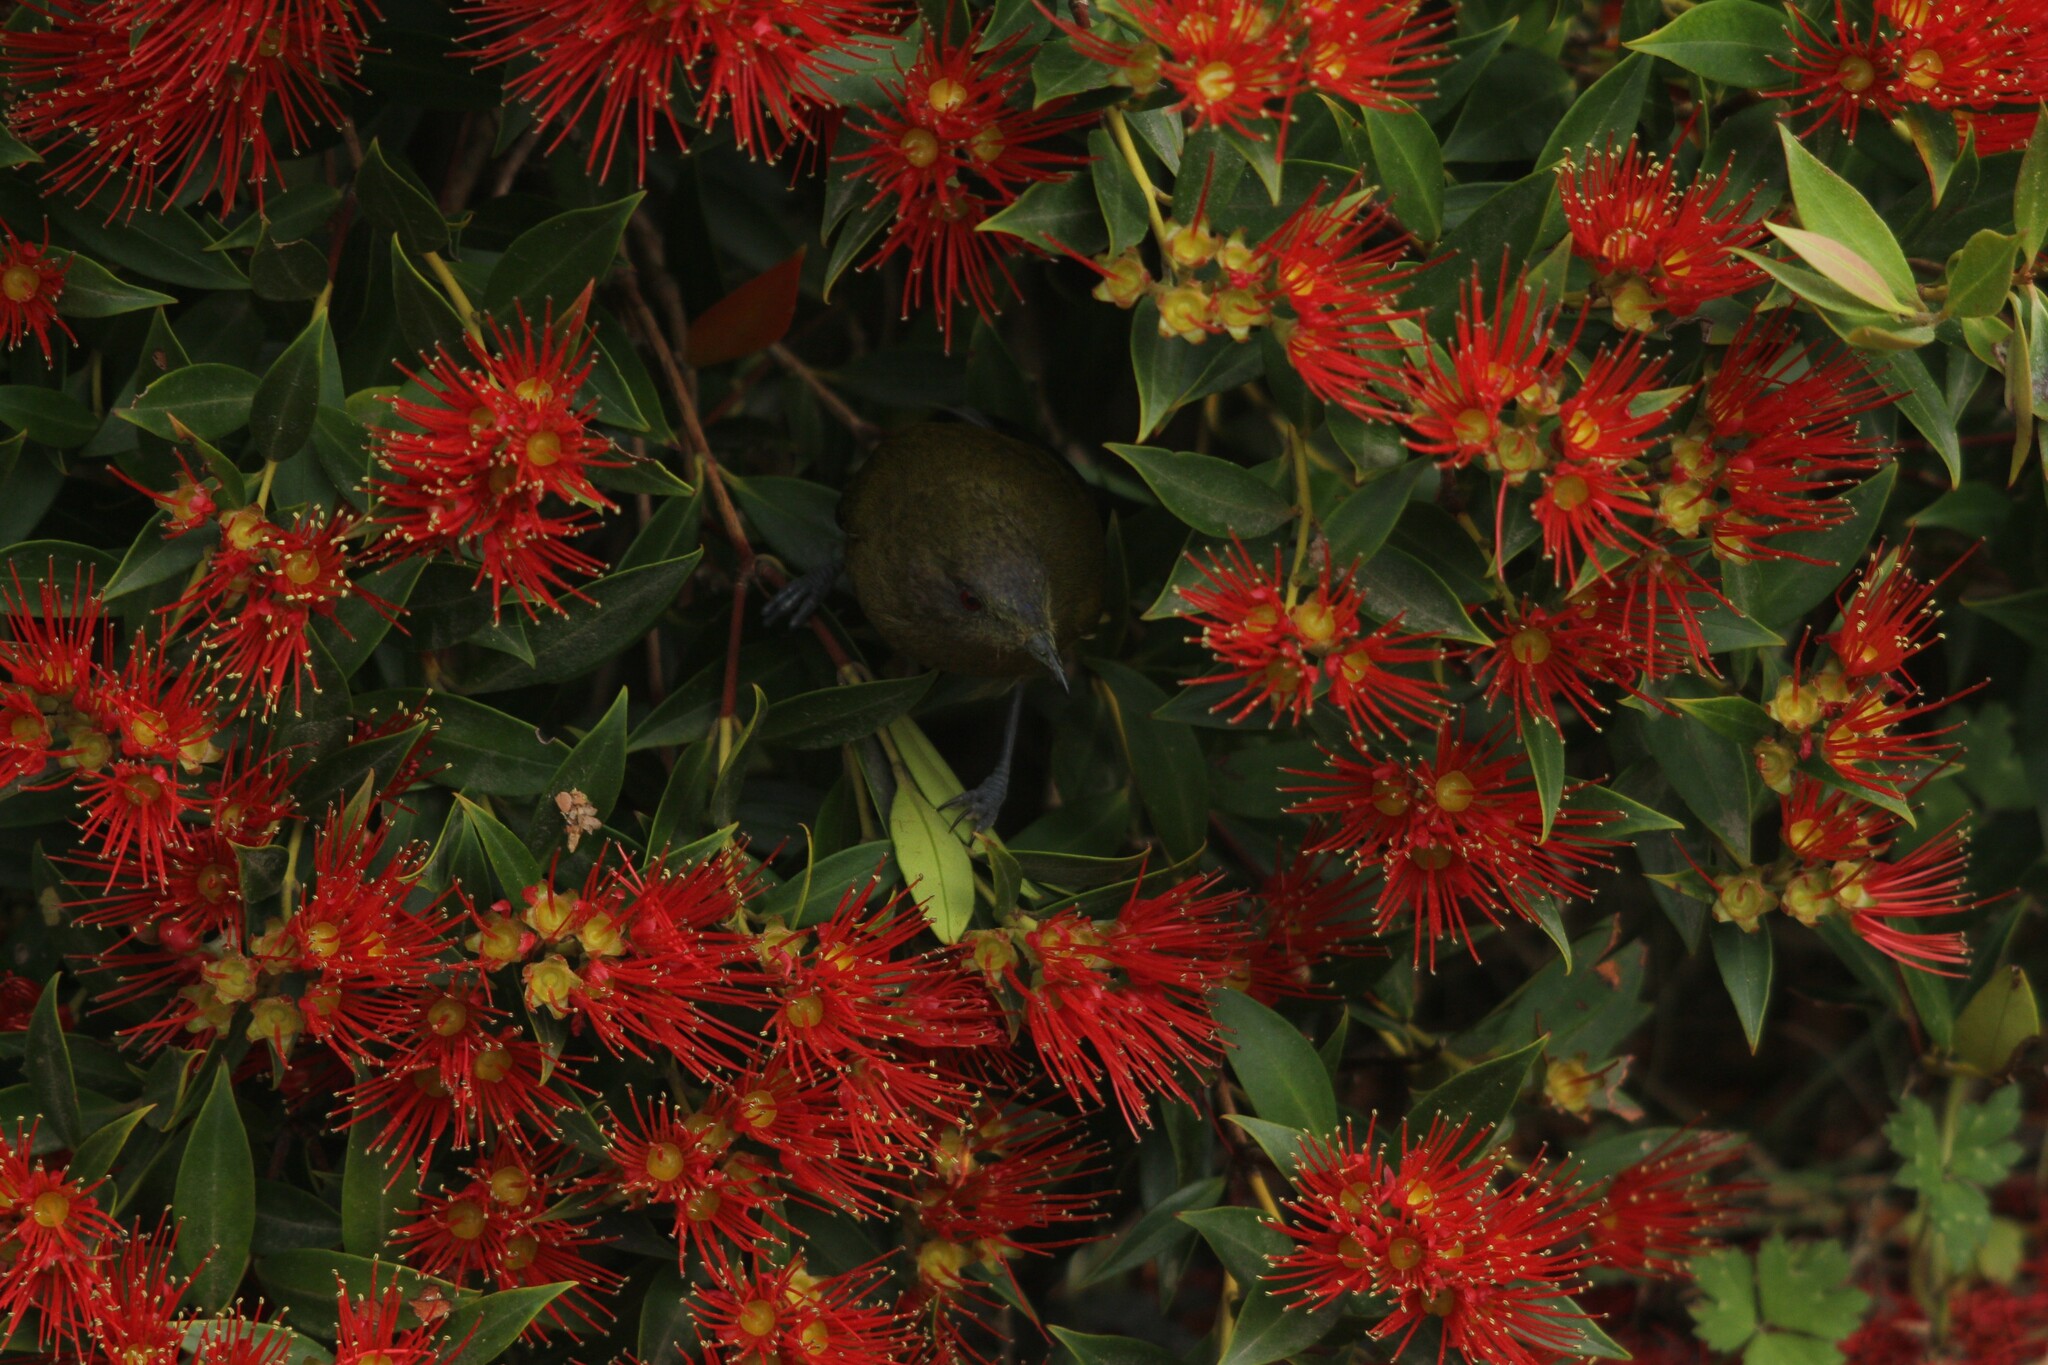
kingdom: Animalia
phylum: Chordata
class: Aves
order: Passeriformes
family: Meliphagidae
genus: Anthornis
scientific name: Anthornis melanura
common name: New zealand bellbird
